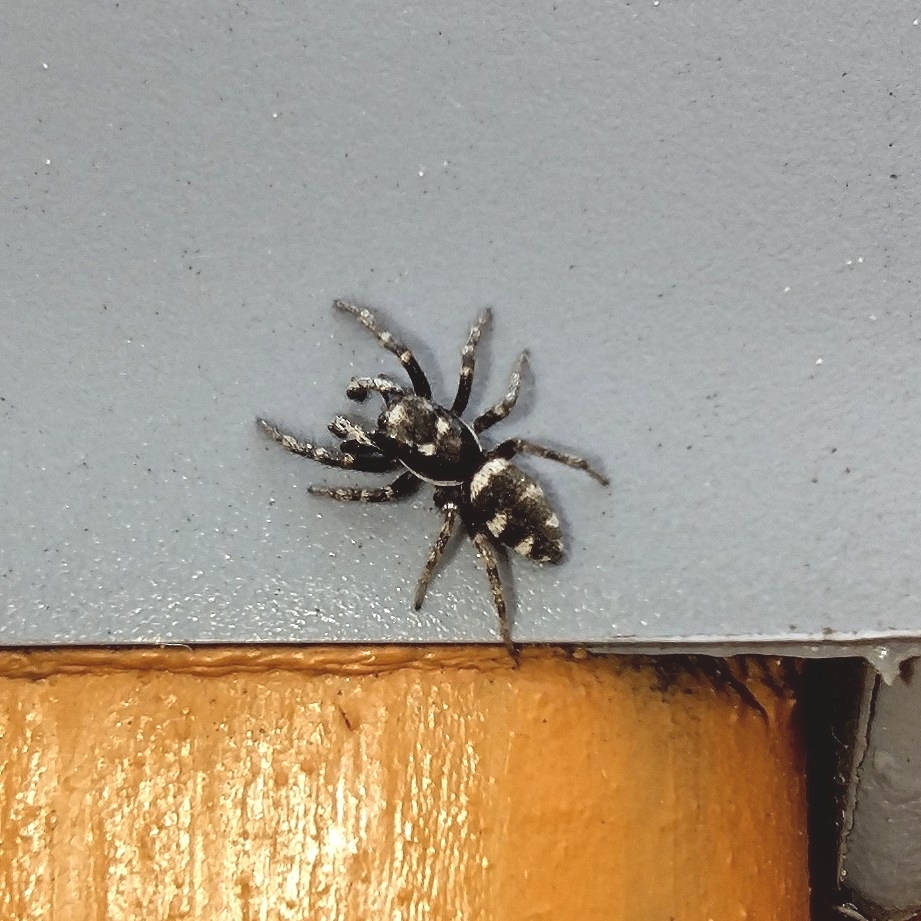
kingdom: Animalia
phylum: Arthropoda
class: Arachnida
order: Araneae
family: Salticidae
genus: Salticus
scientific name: Salticus scenicus
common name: Zebra jumper
